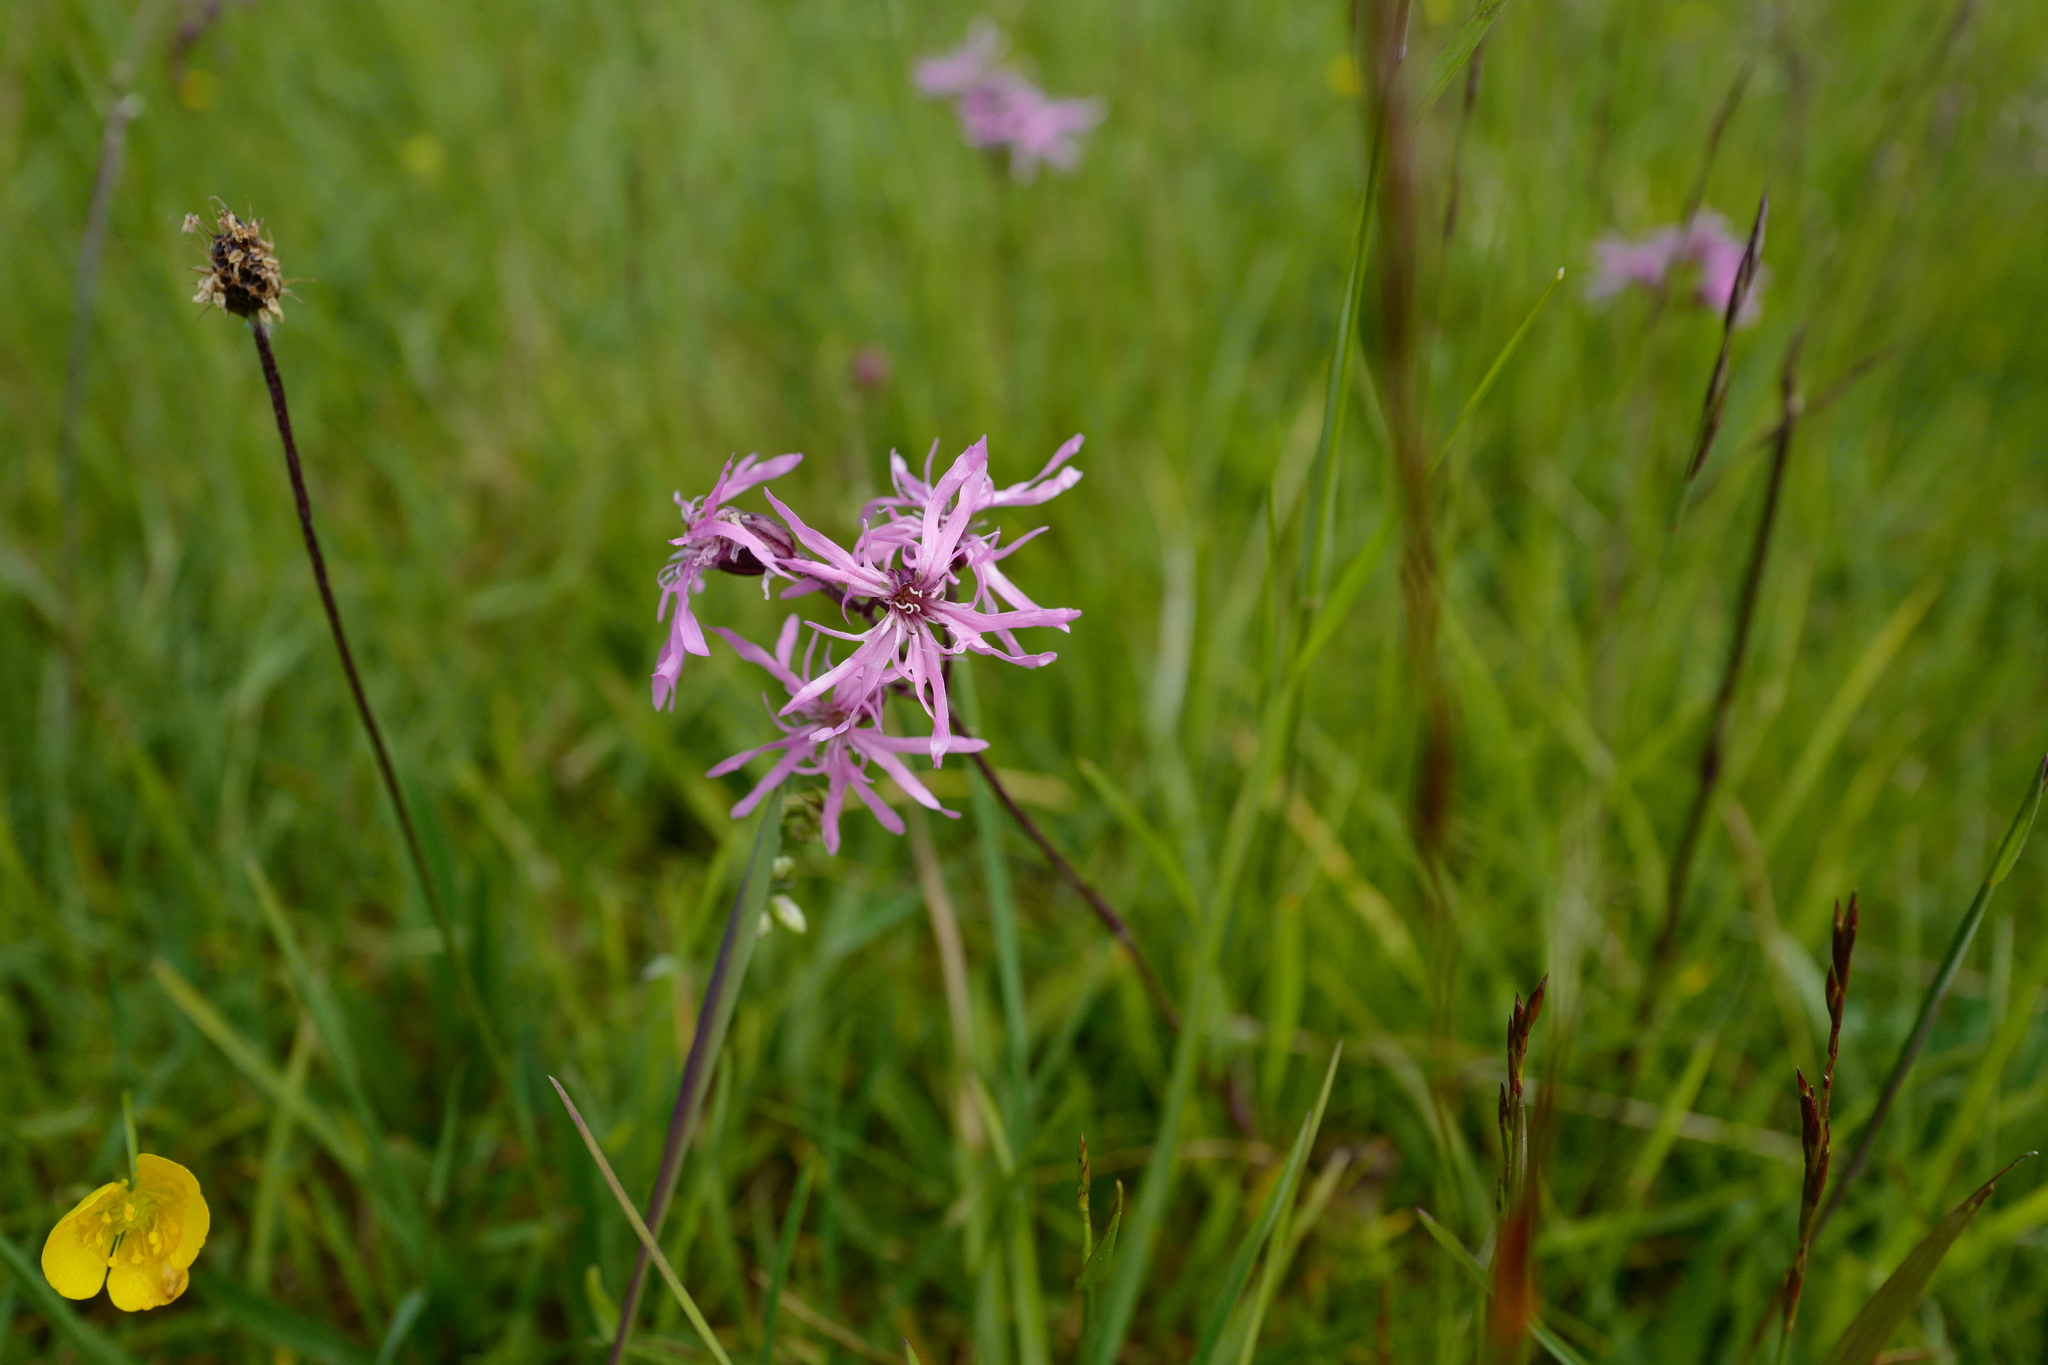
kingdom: Plantae
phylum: Tracheophyta
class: Magnoliopsida
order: Caryophyllales
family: Caryophyllaceae
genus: Silene
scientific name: Silene flos-cuculi
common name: Ragged-robin
